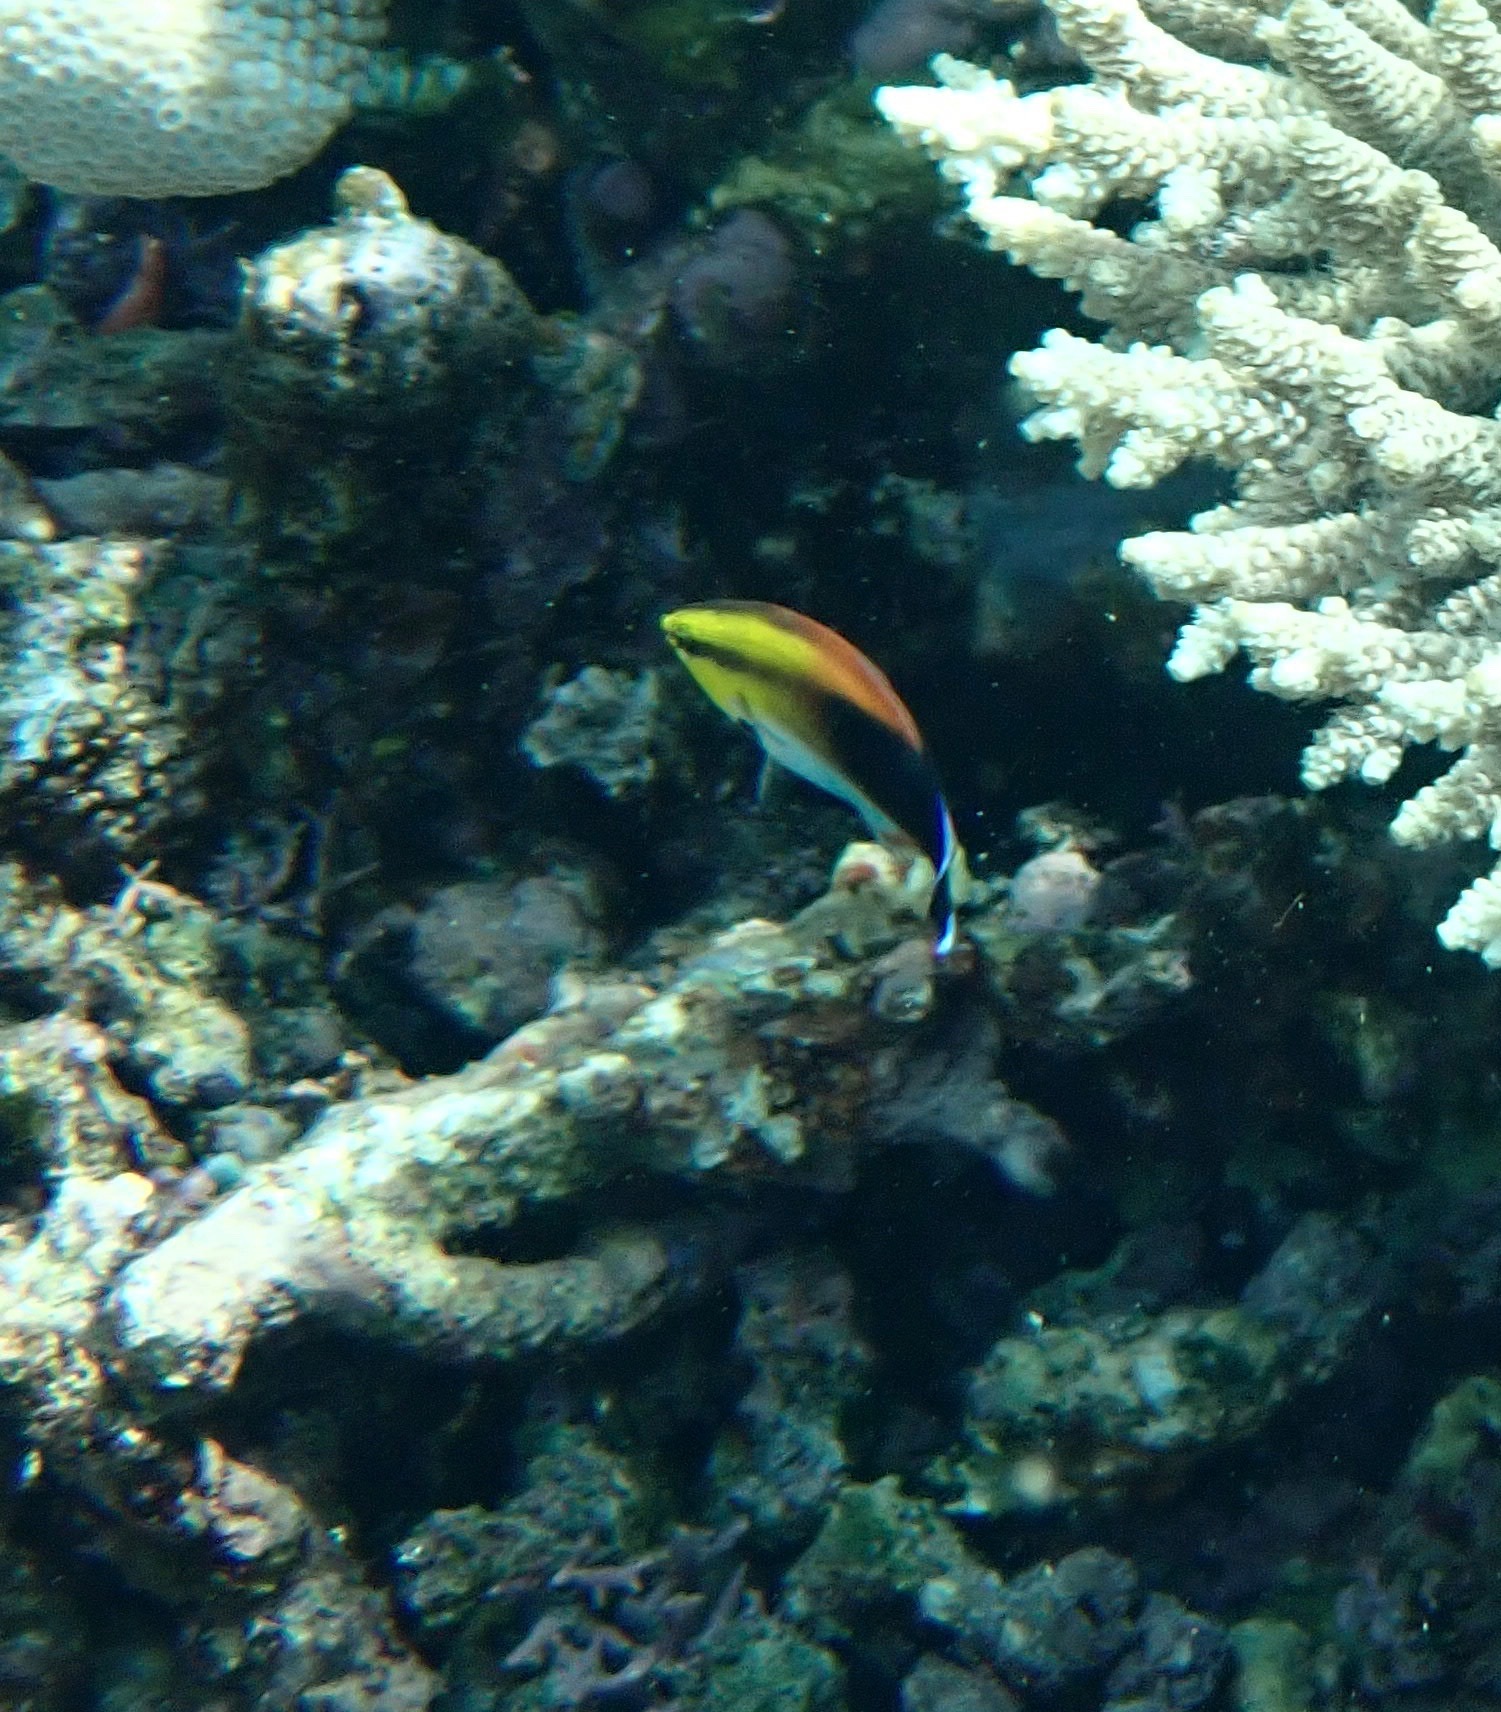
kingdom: Animalia
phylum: Chordata
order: Perciformes
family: Labridae
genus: Labroides
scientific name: Labroides pectoralis
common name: Black-spot cleaner wrasse
